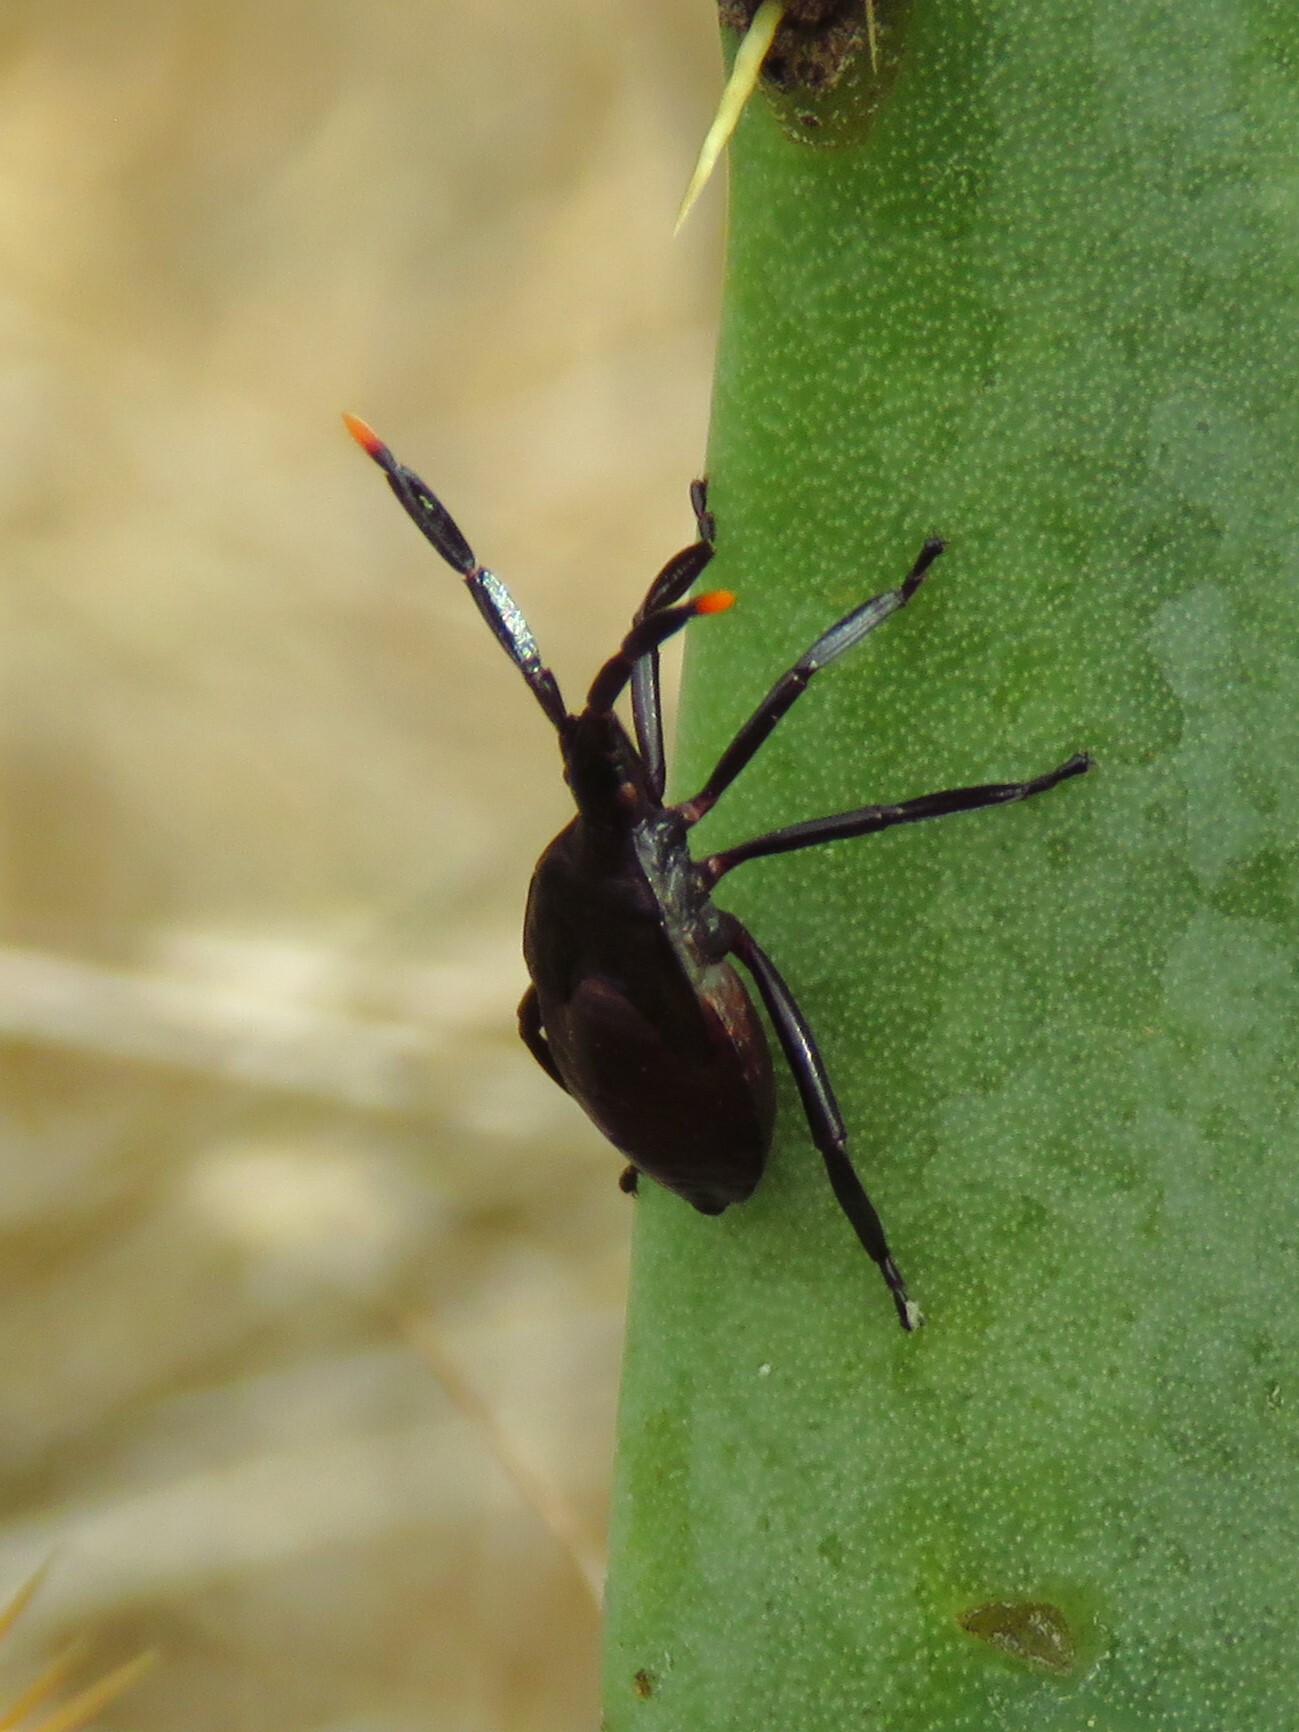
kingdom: Animalia
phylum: Arthropoda
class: Insecta
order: Hemiptera
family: Coreidae
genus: Chelinidea
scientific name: Chelinidea vittiger
